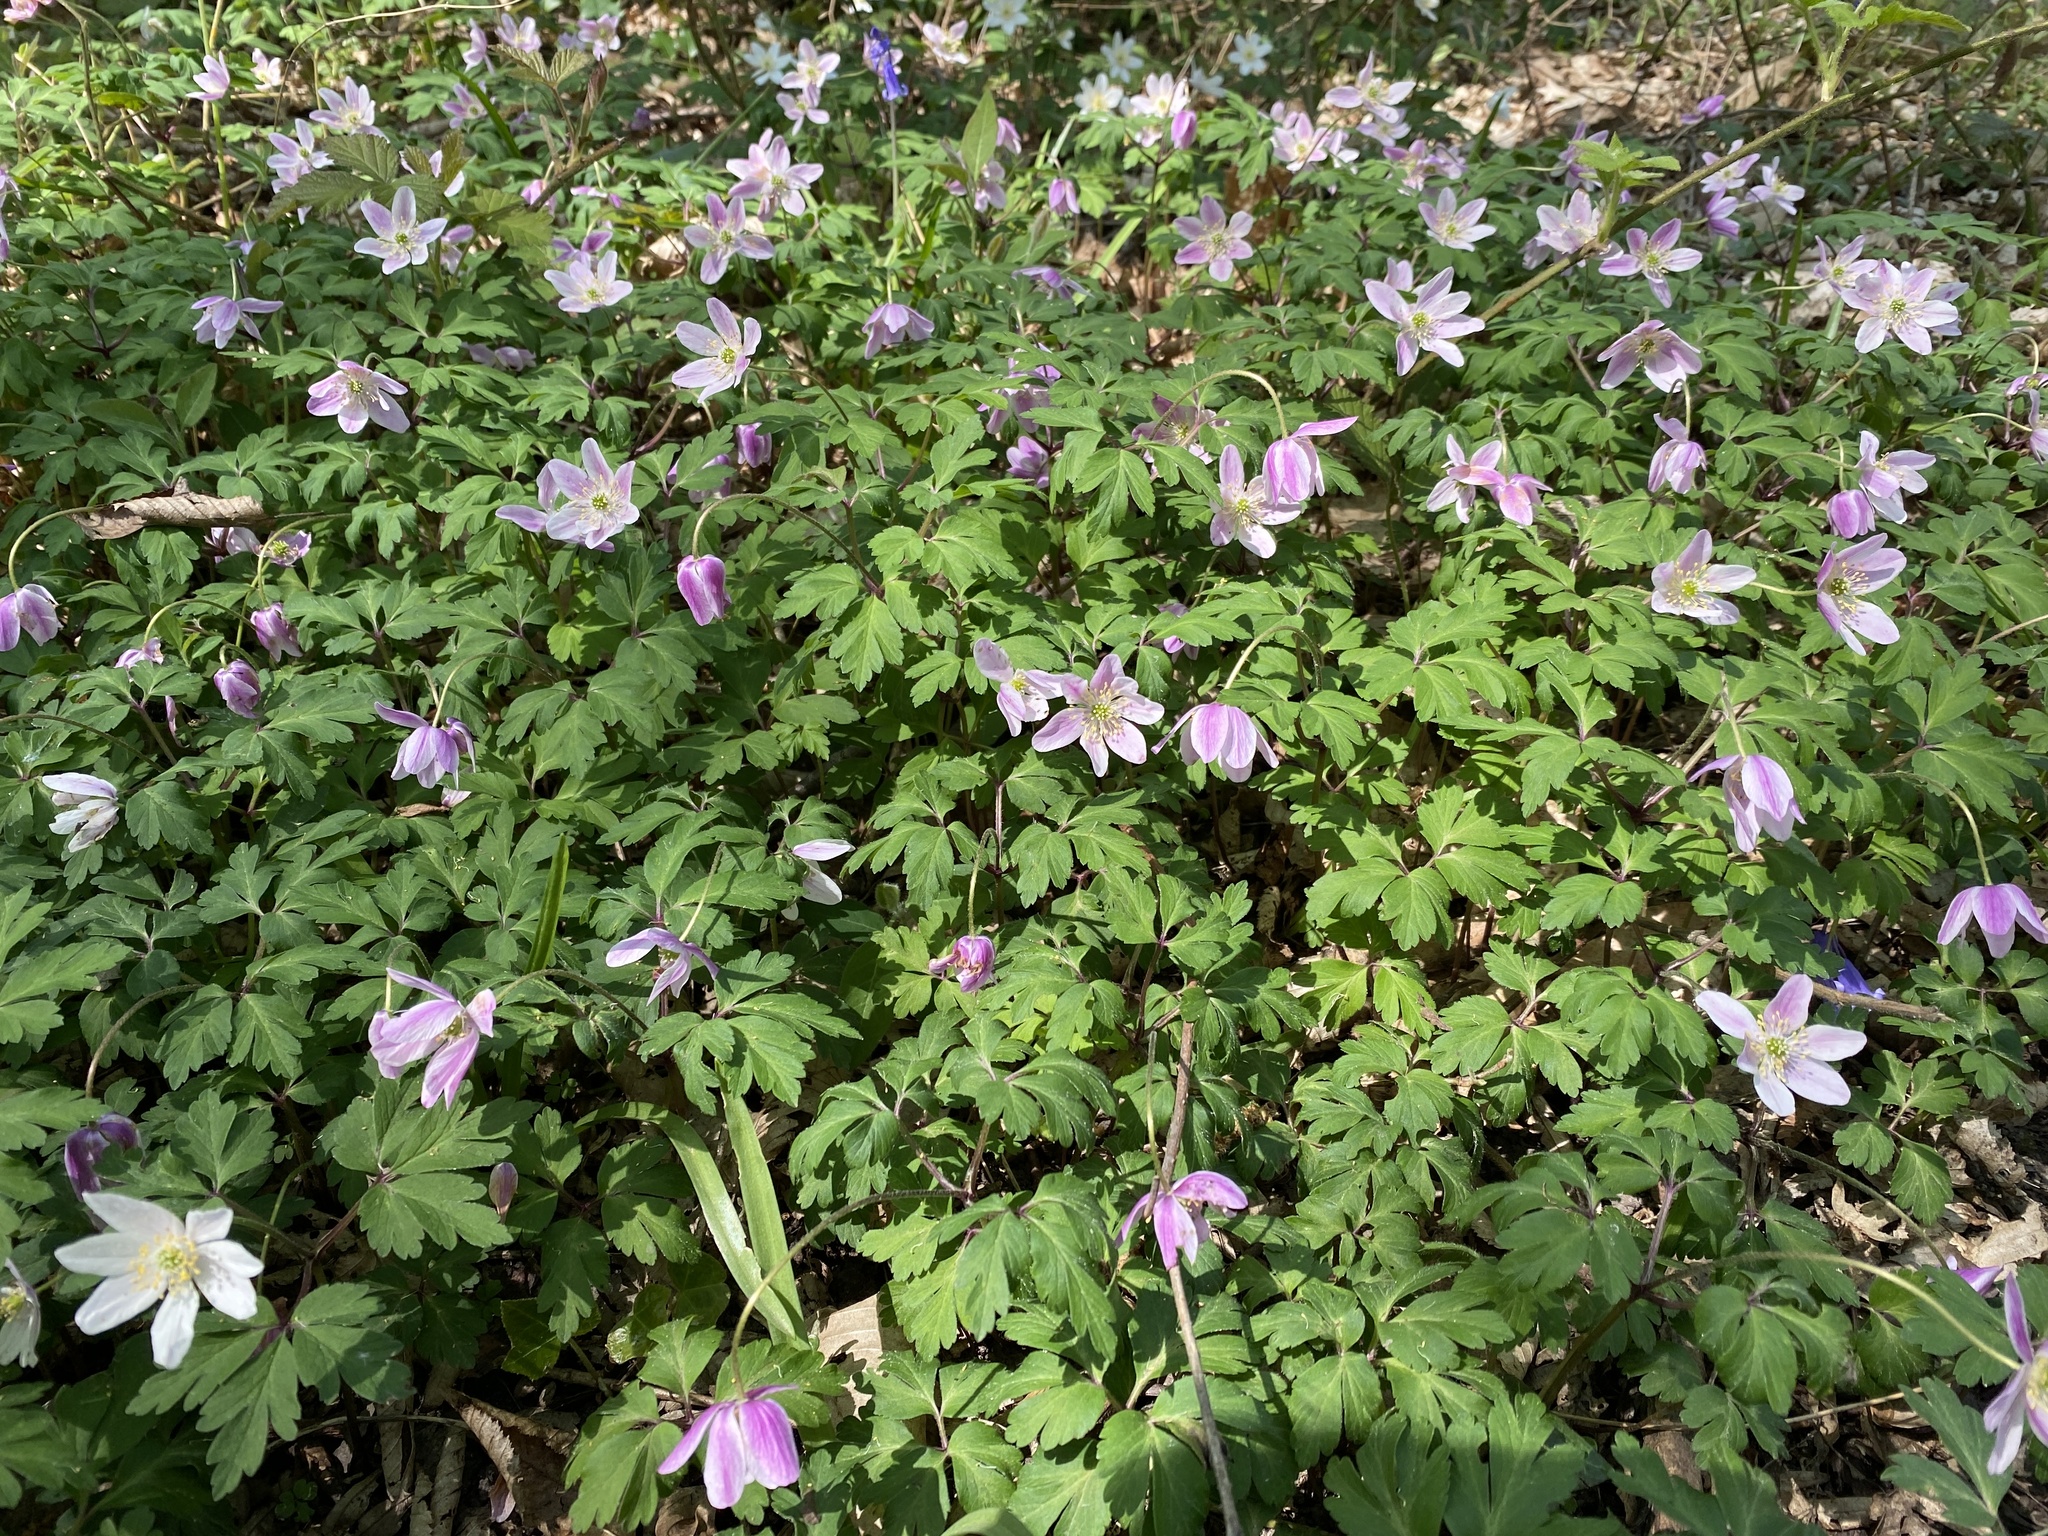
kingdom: Plantae
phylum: Tracheophyta
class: Magnoliopsida
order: Ranunculales
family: Ranunculaceae
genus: Anemone
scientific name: Anemone nemorosa
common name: Wood anemone
